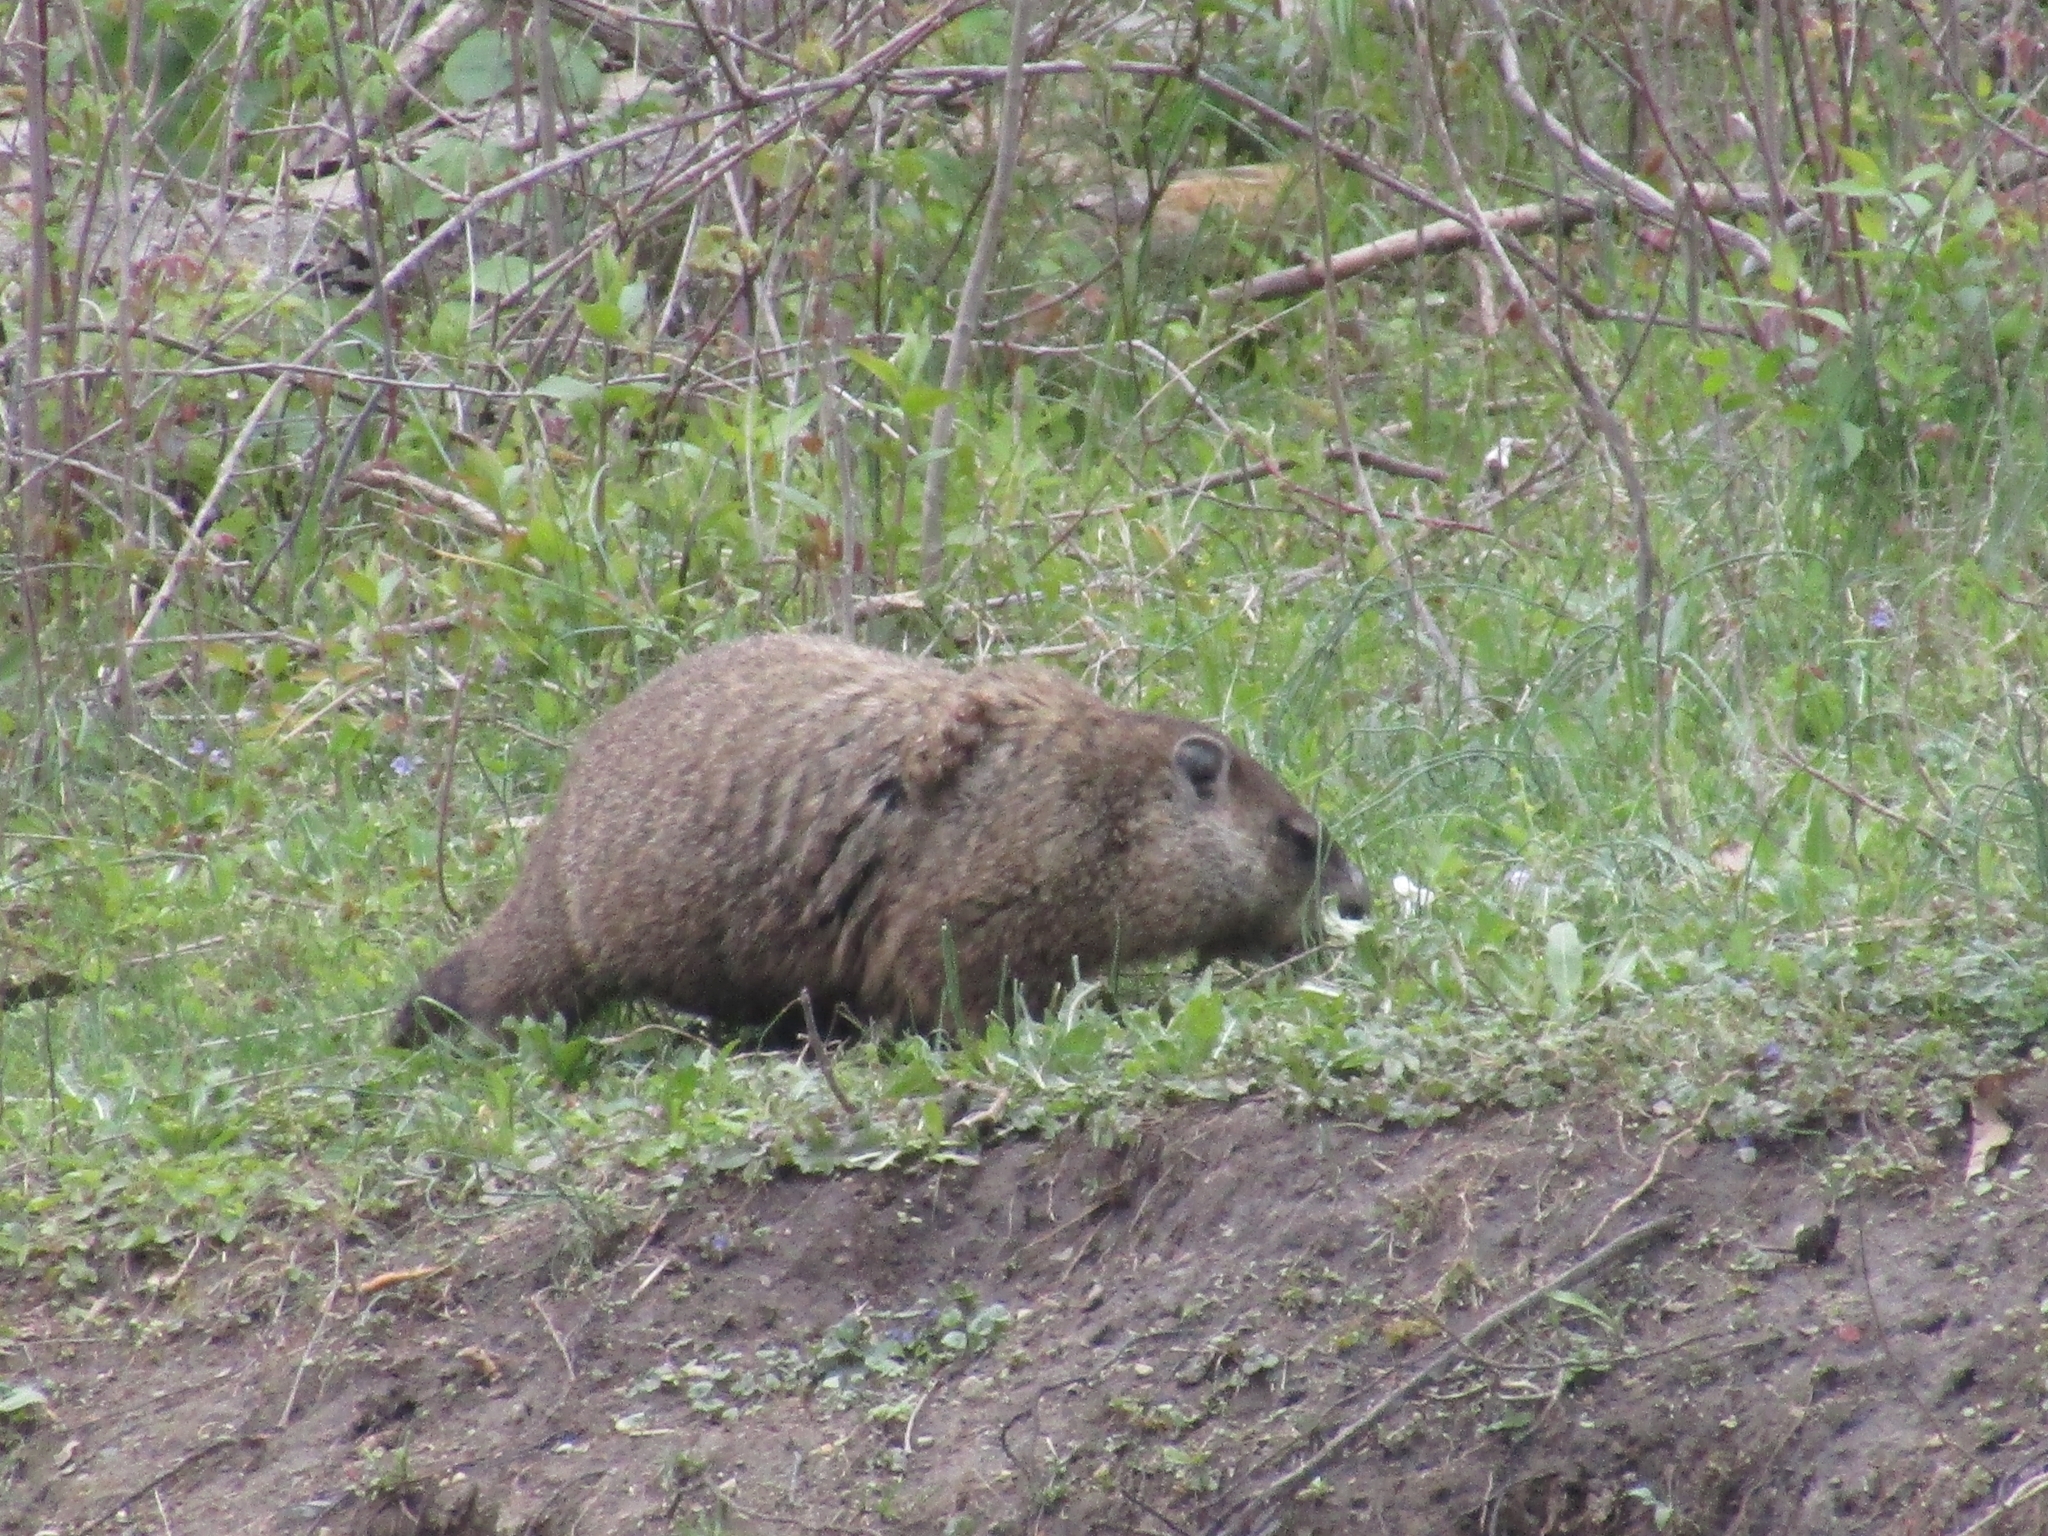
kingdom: Animalia
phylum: Chordata
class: Mammalia
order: Rodentia
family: Sciuridae
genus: Marmota
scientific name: Marmota monax
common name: Groundhog
